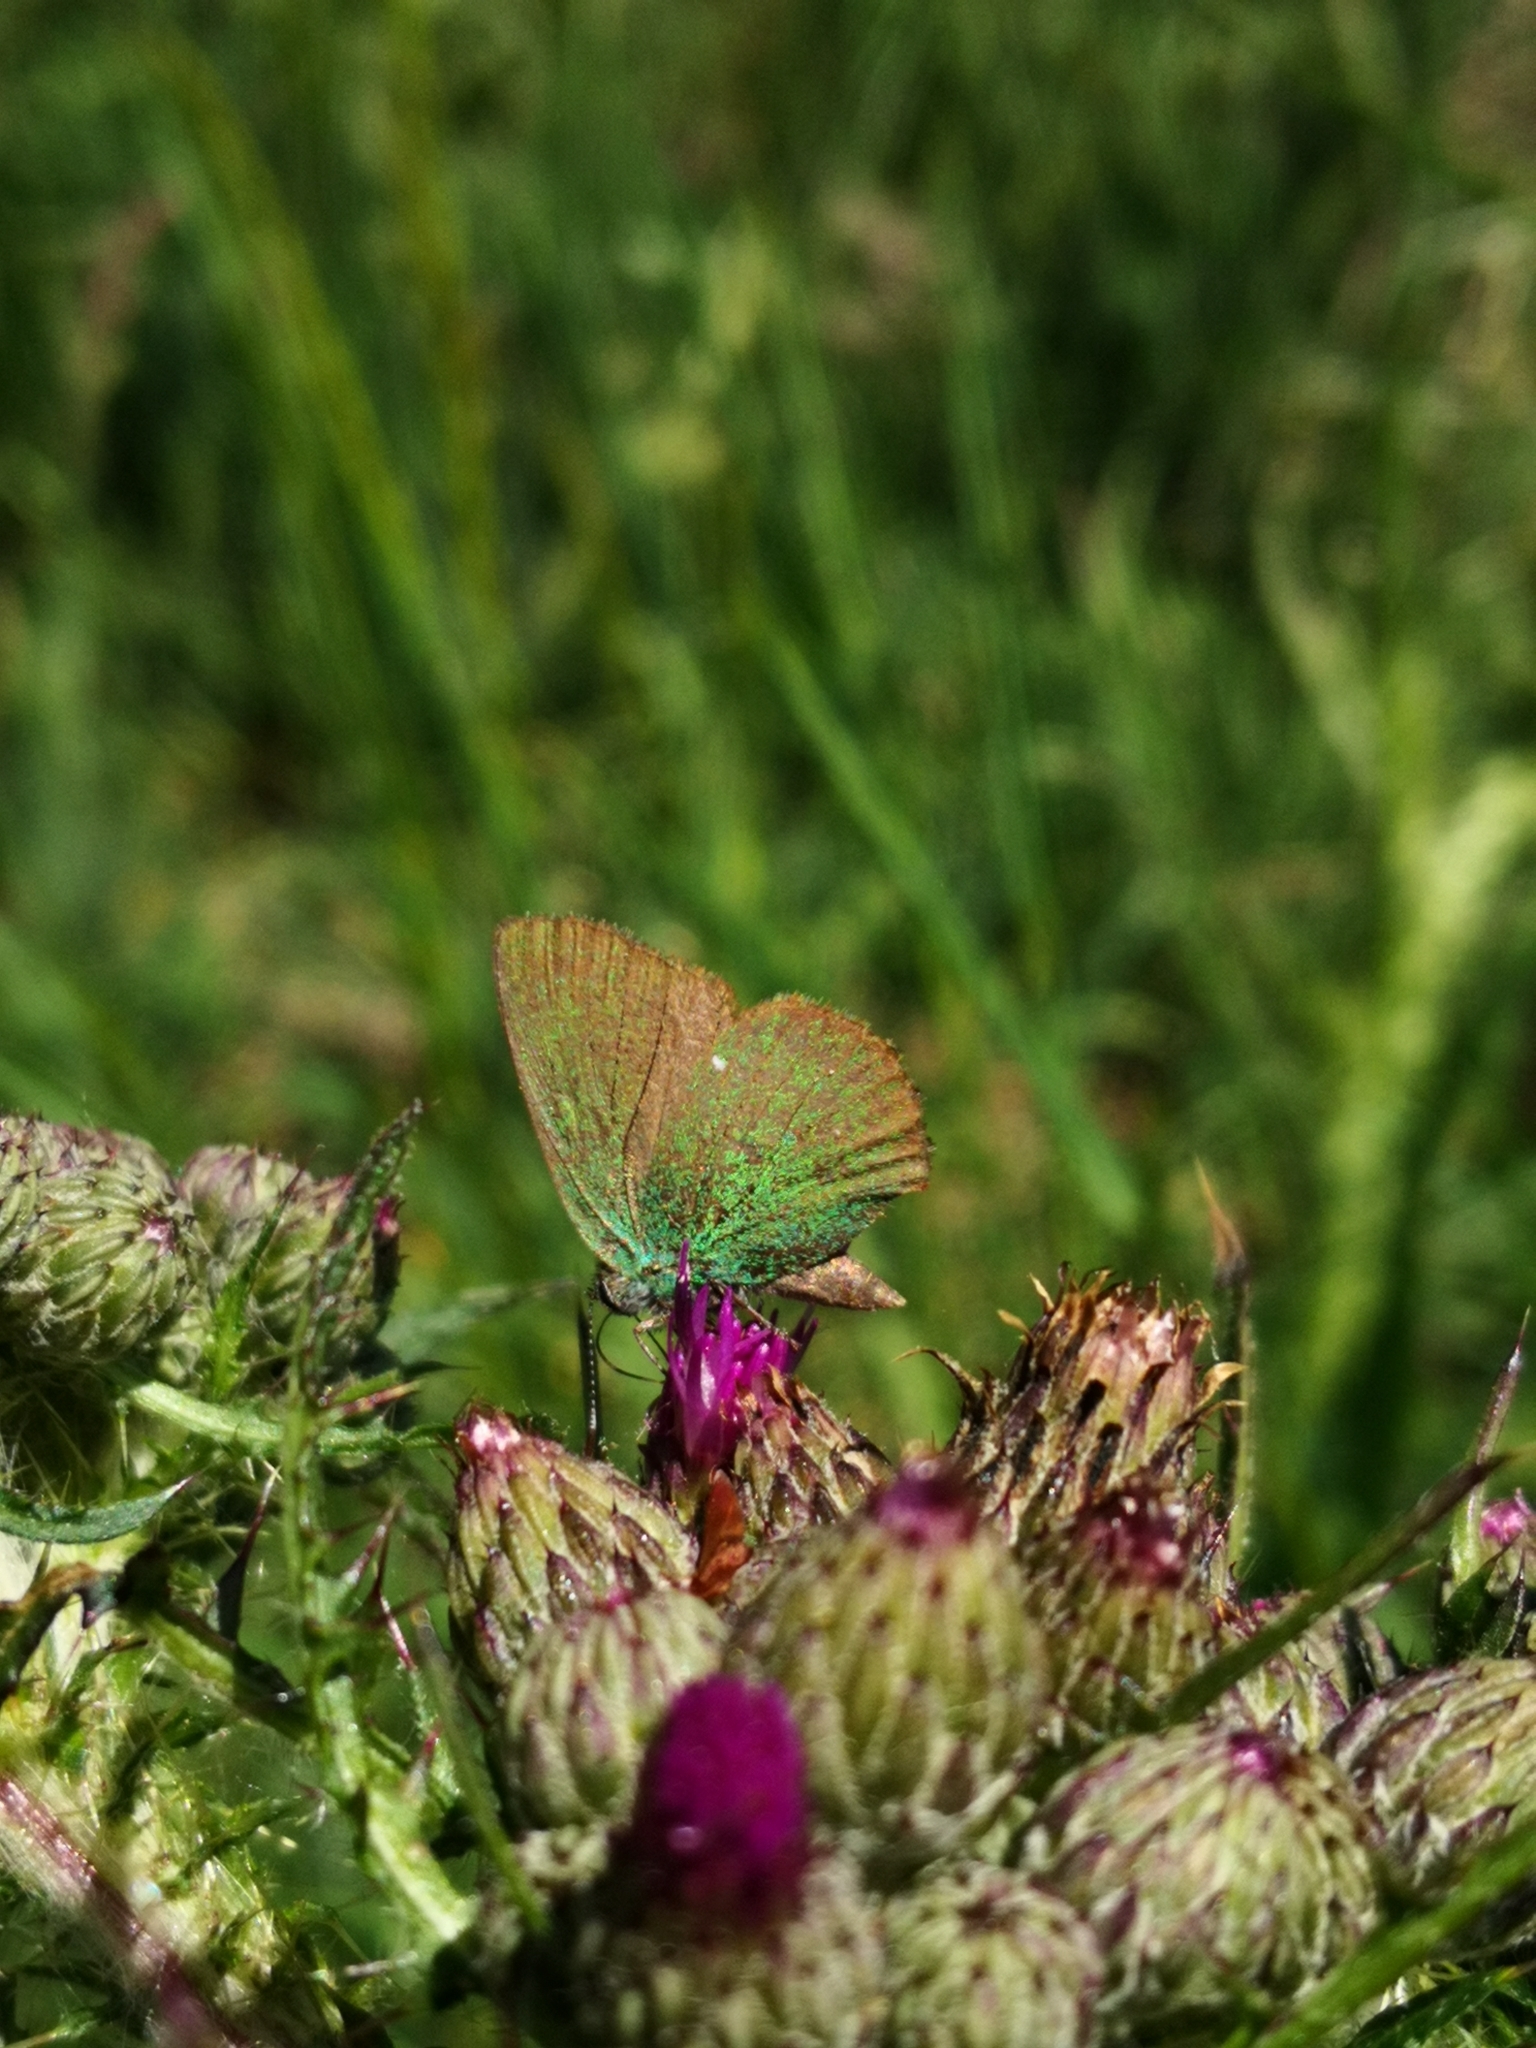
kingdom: Animalia
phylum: Arthropoda
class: Insecta
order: Lepidoptera
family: Lycaenidae
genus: Callophrys
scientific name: Callophrys rubi
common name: Green hairstreak
